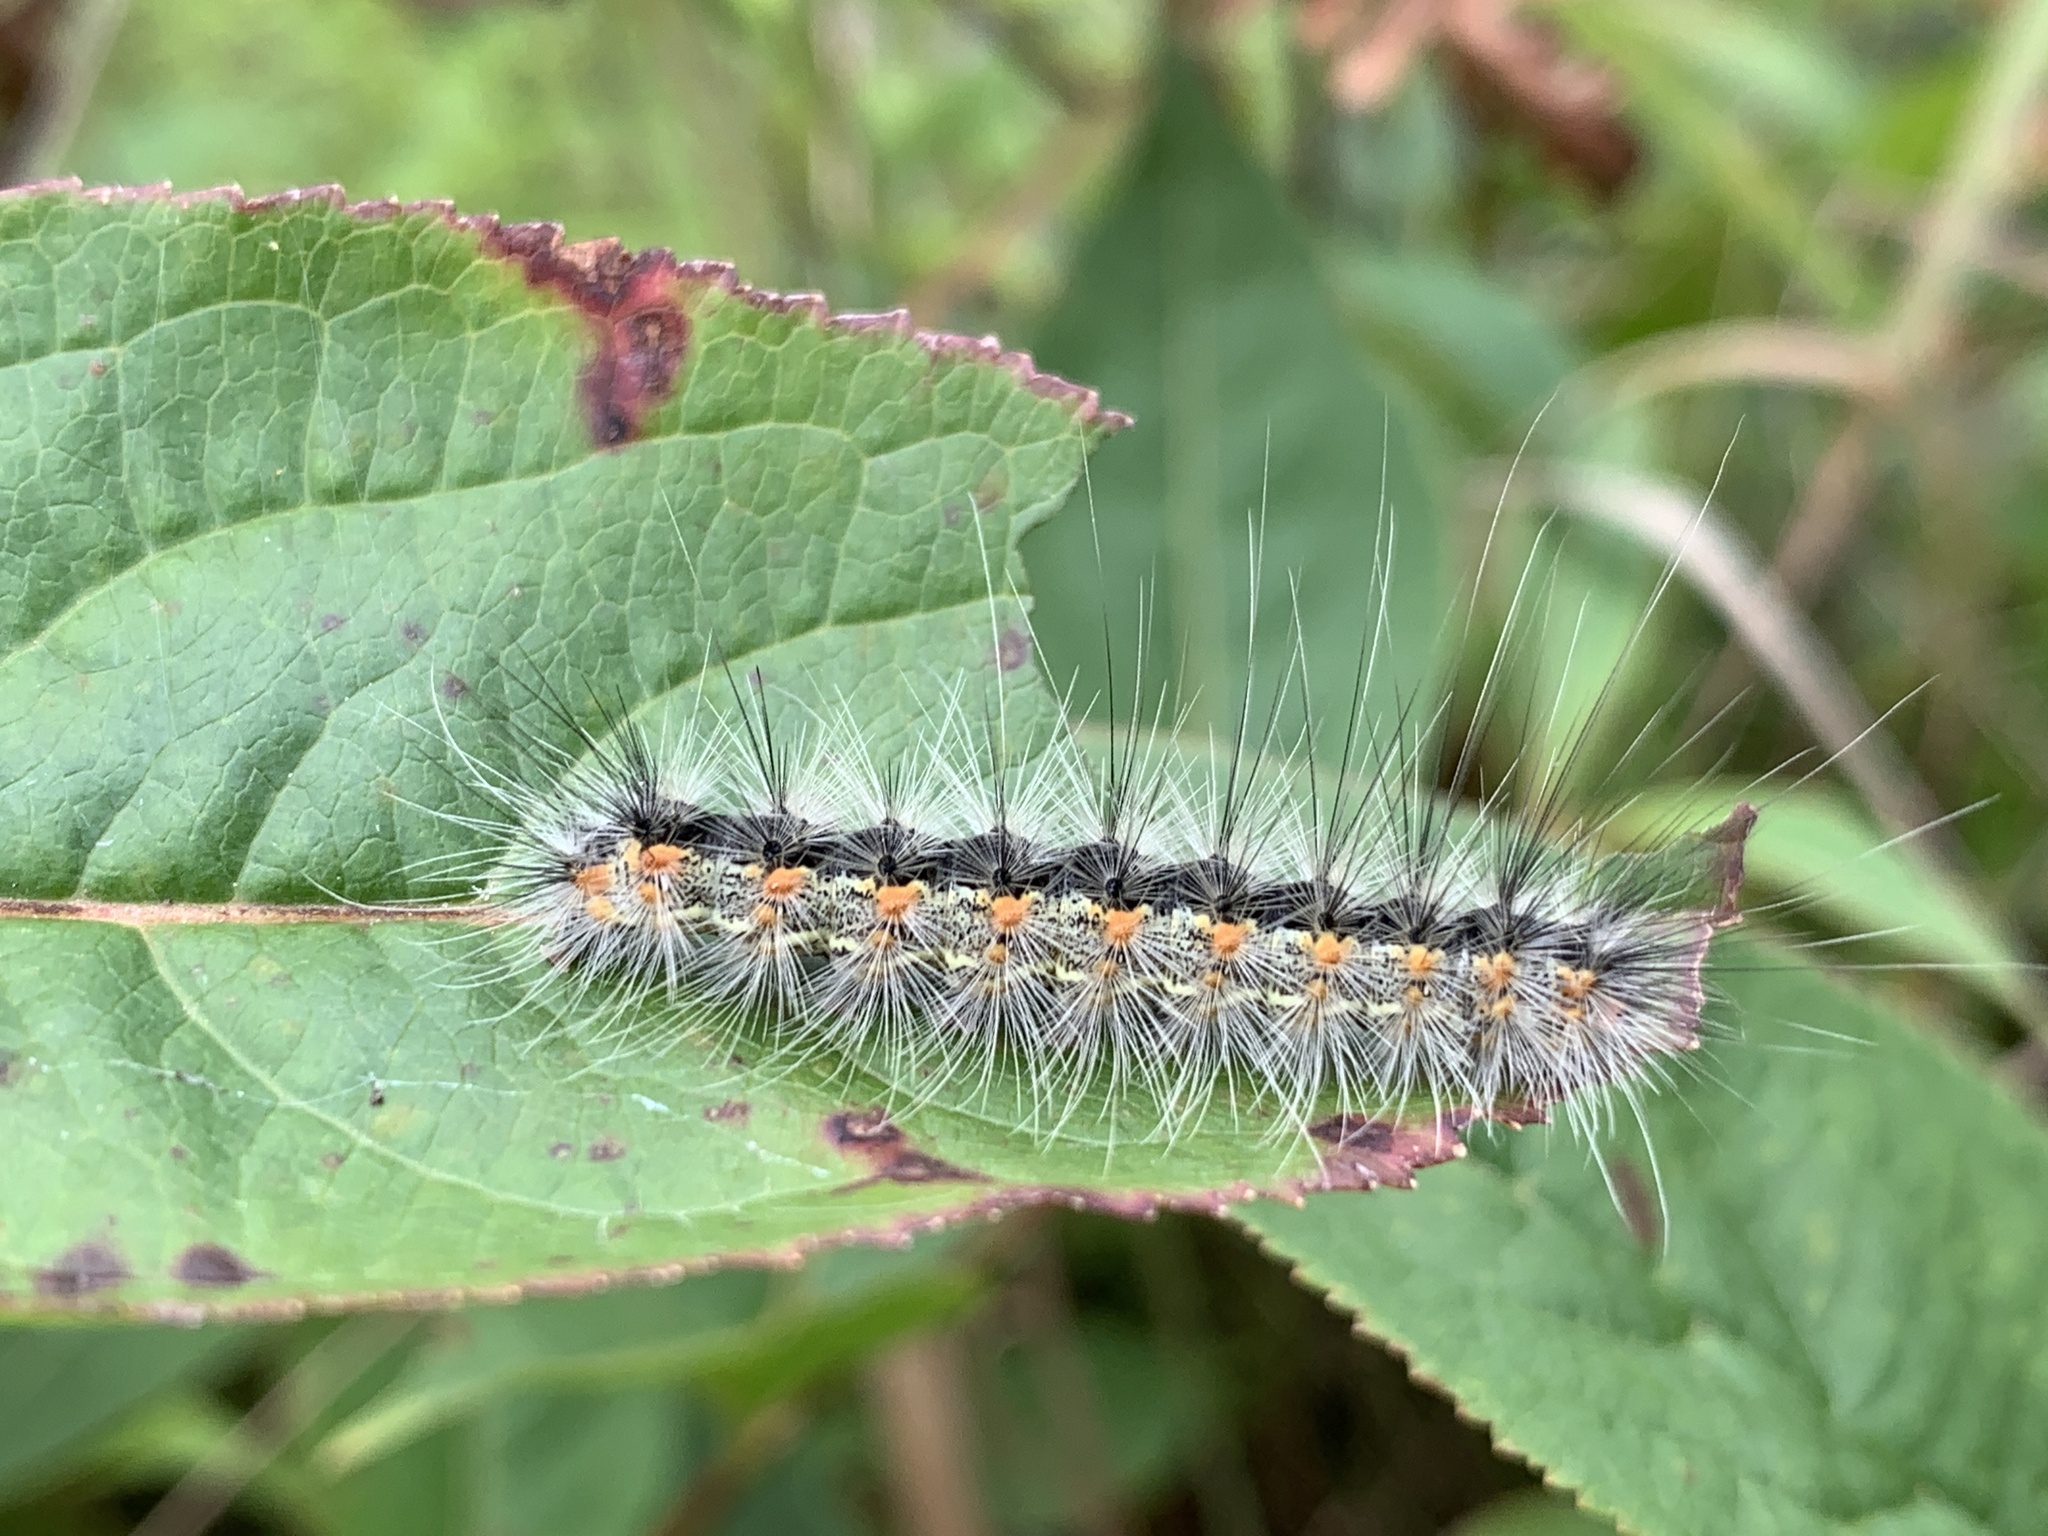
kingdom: Animalia
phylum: Arthropoda
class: Insecta
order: Lepidoptera
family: Erebidae
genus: Hyphantria
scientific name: Hyphantria cunea
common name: American white moth
